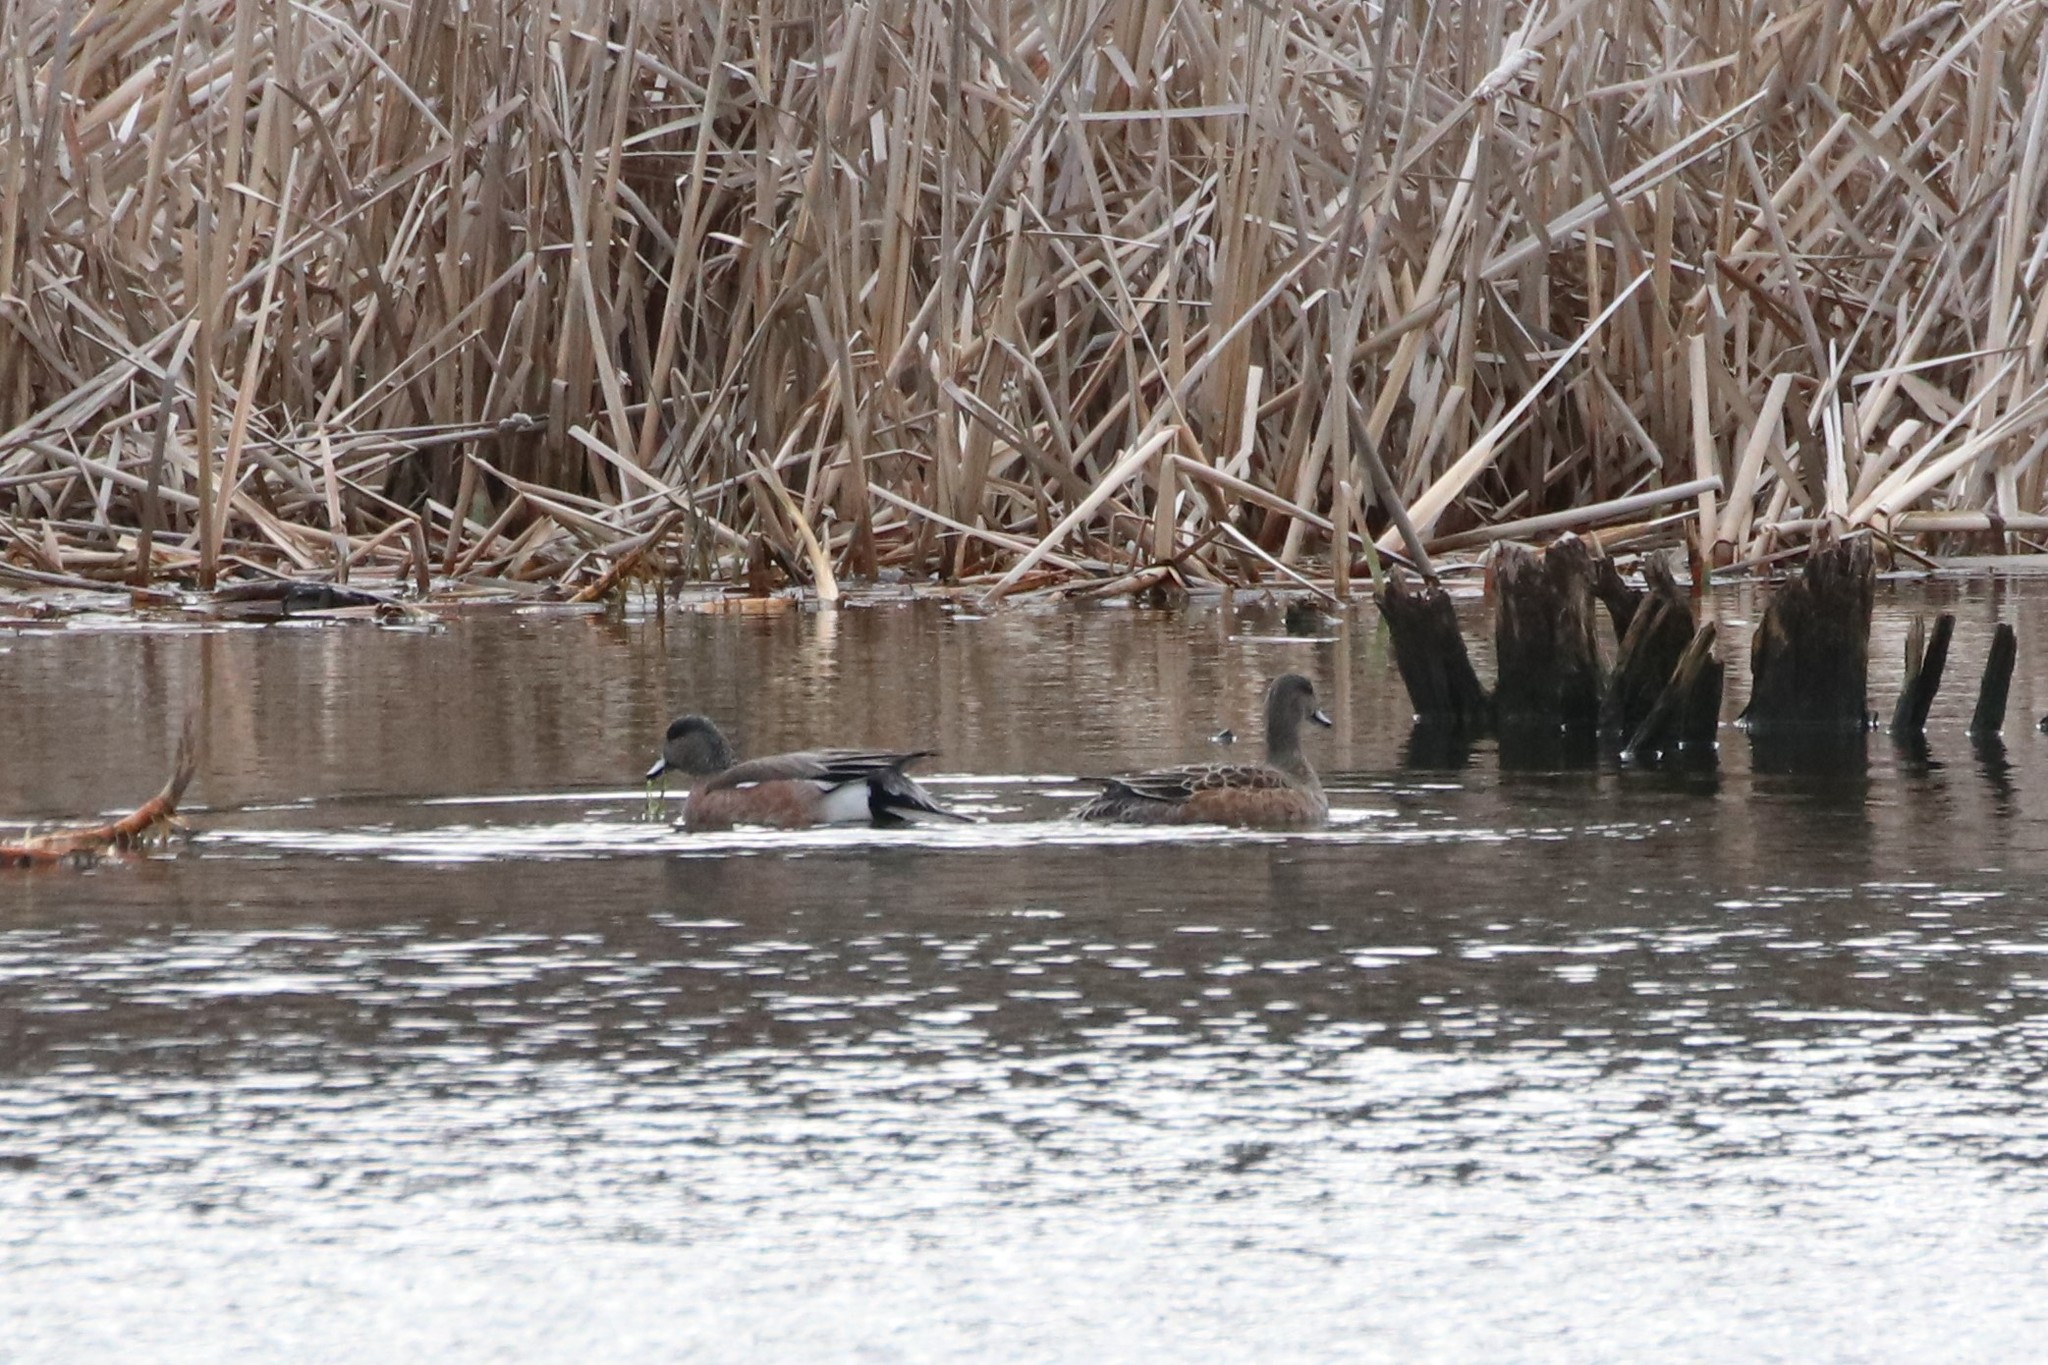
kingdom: Animalia
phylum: Chordata
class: Aves
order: Anseriformes
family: Anatidae
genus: Mareca
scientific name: Mareca americana
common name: American wigeon
